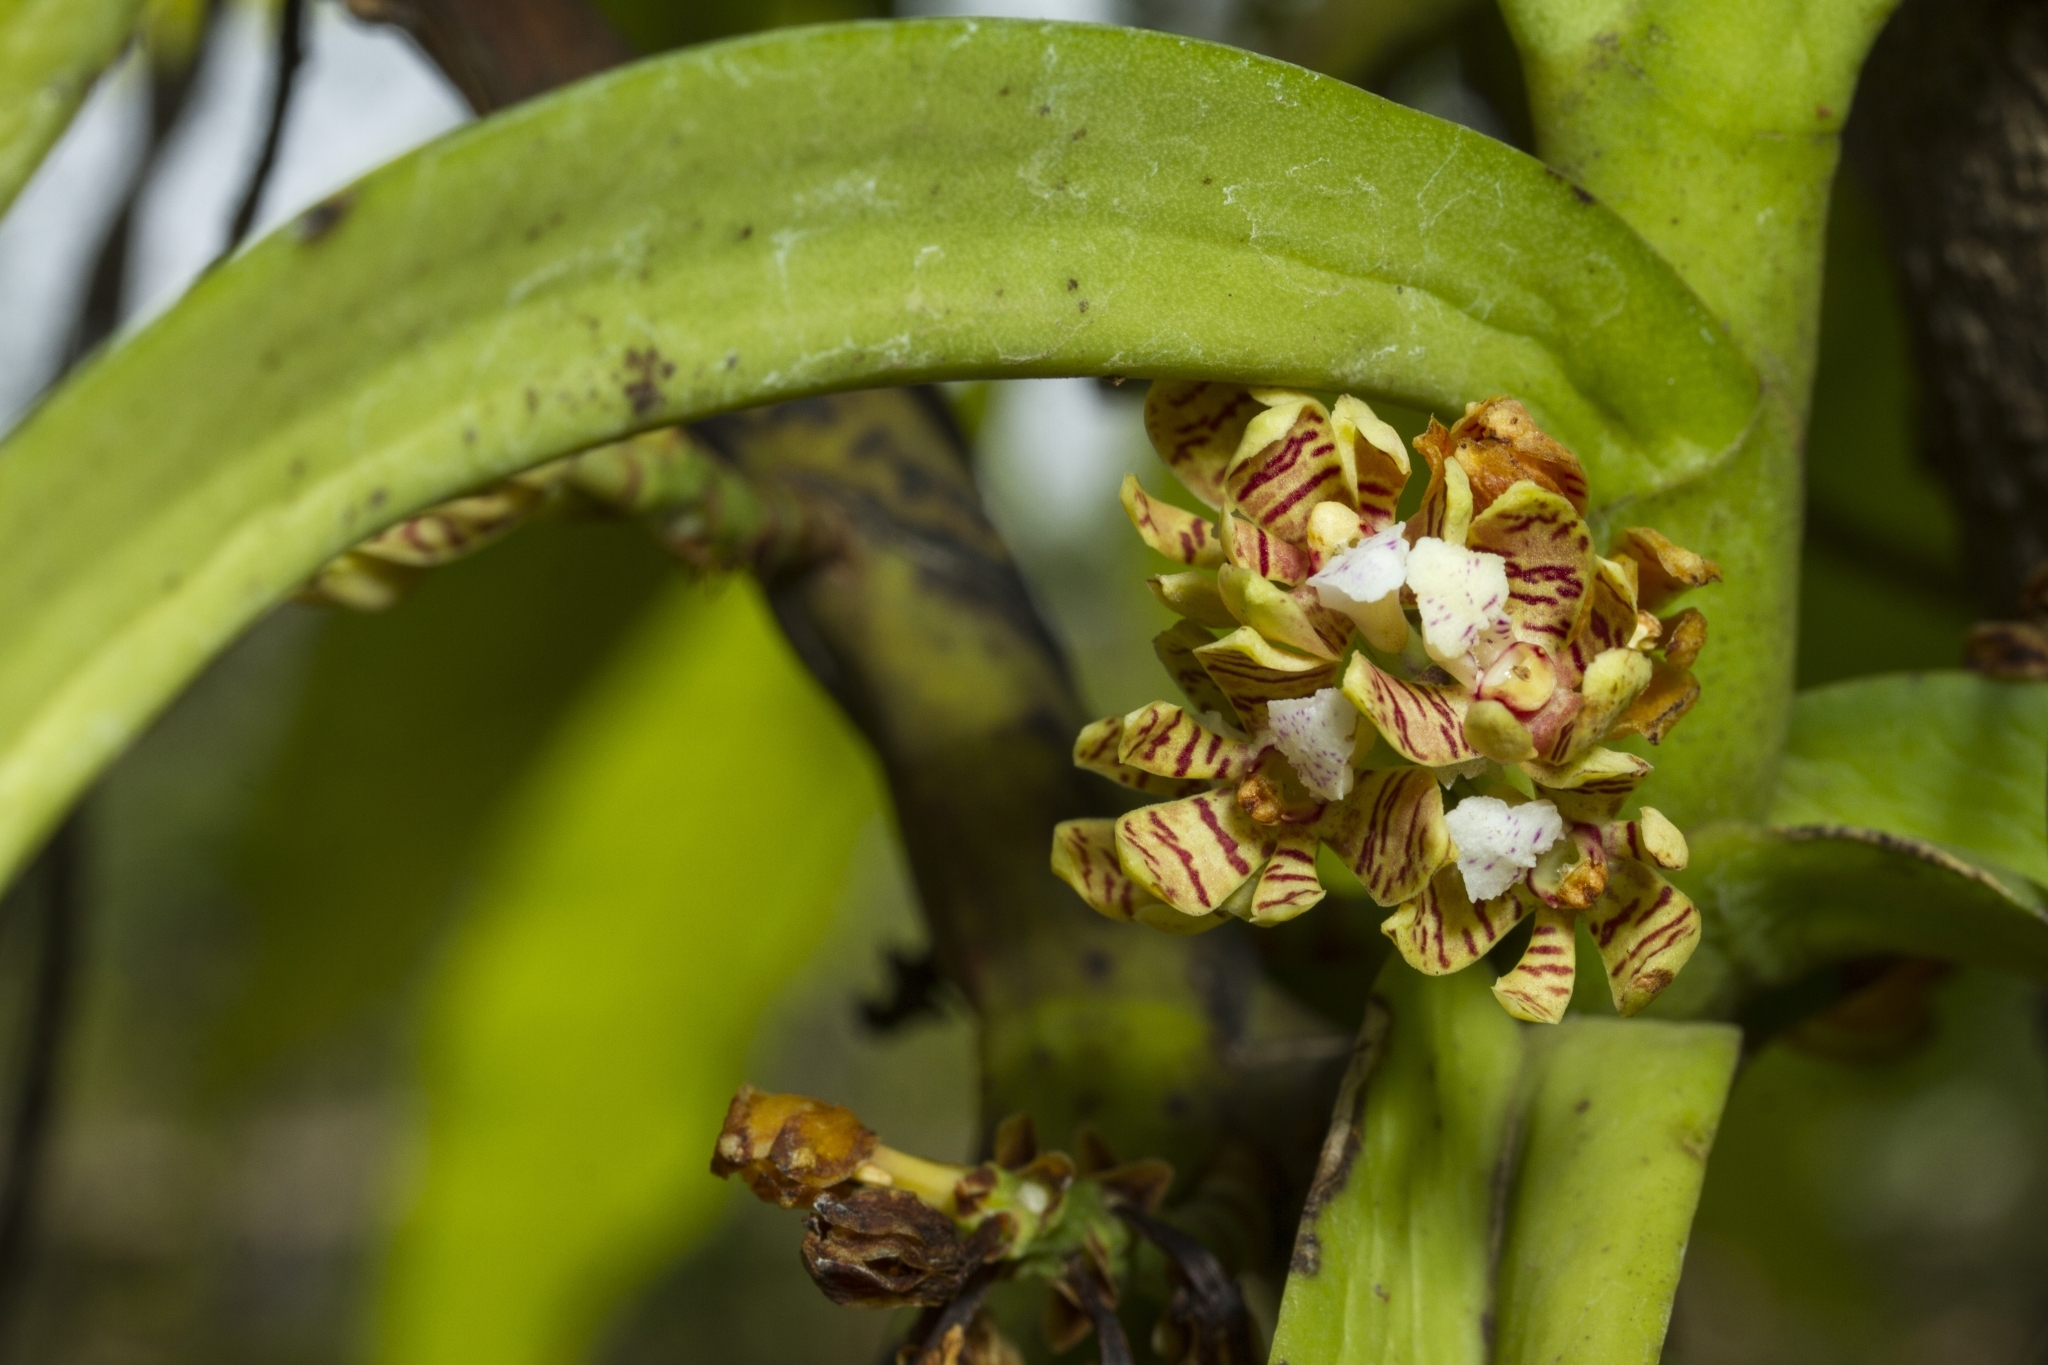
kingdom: Plantae
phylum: Tracheophyta
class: Liliopsida
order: Asparagales
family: Orchidaceae
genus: Acampe
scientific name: Acampe praemorsa
